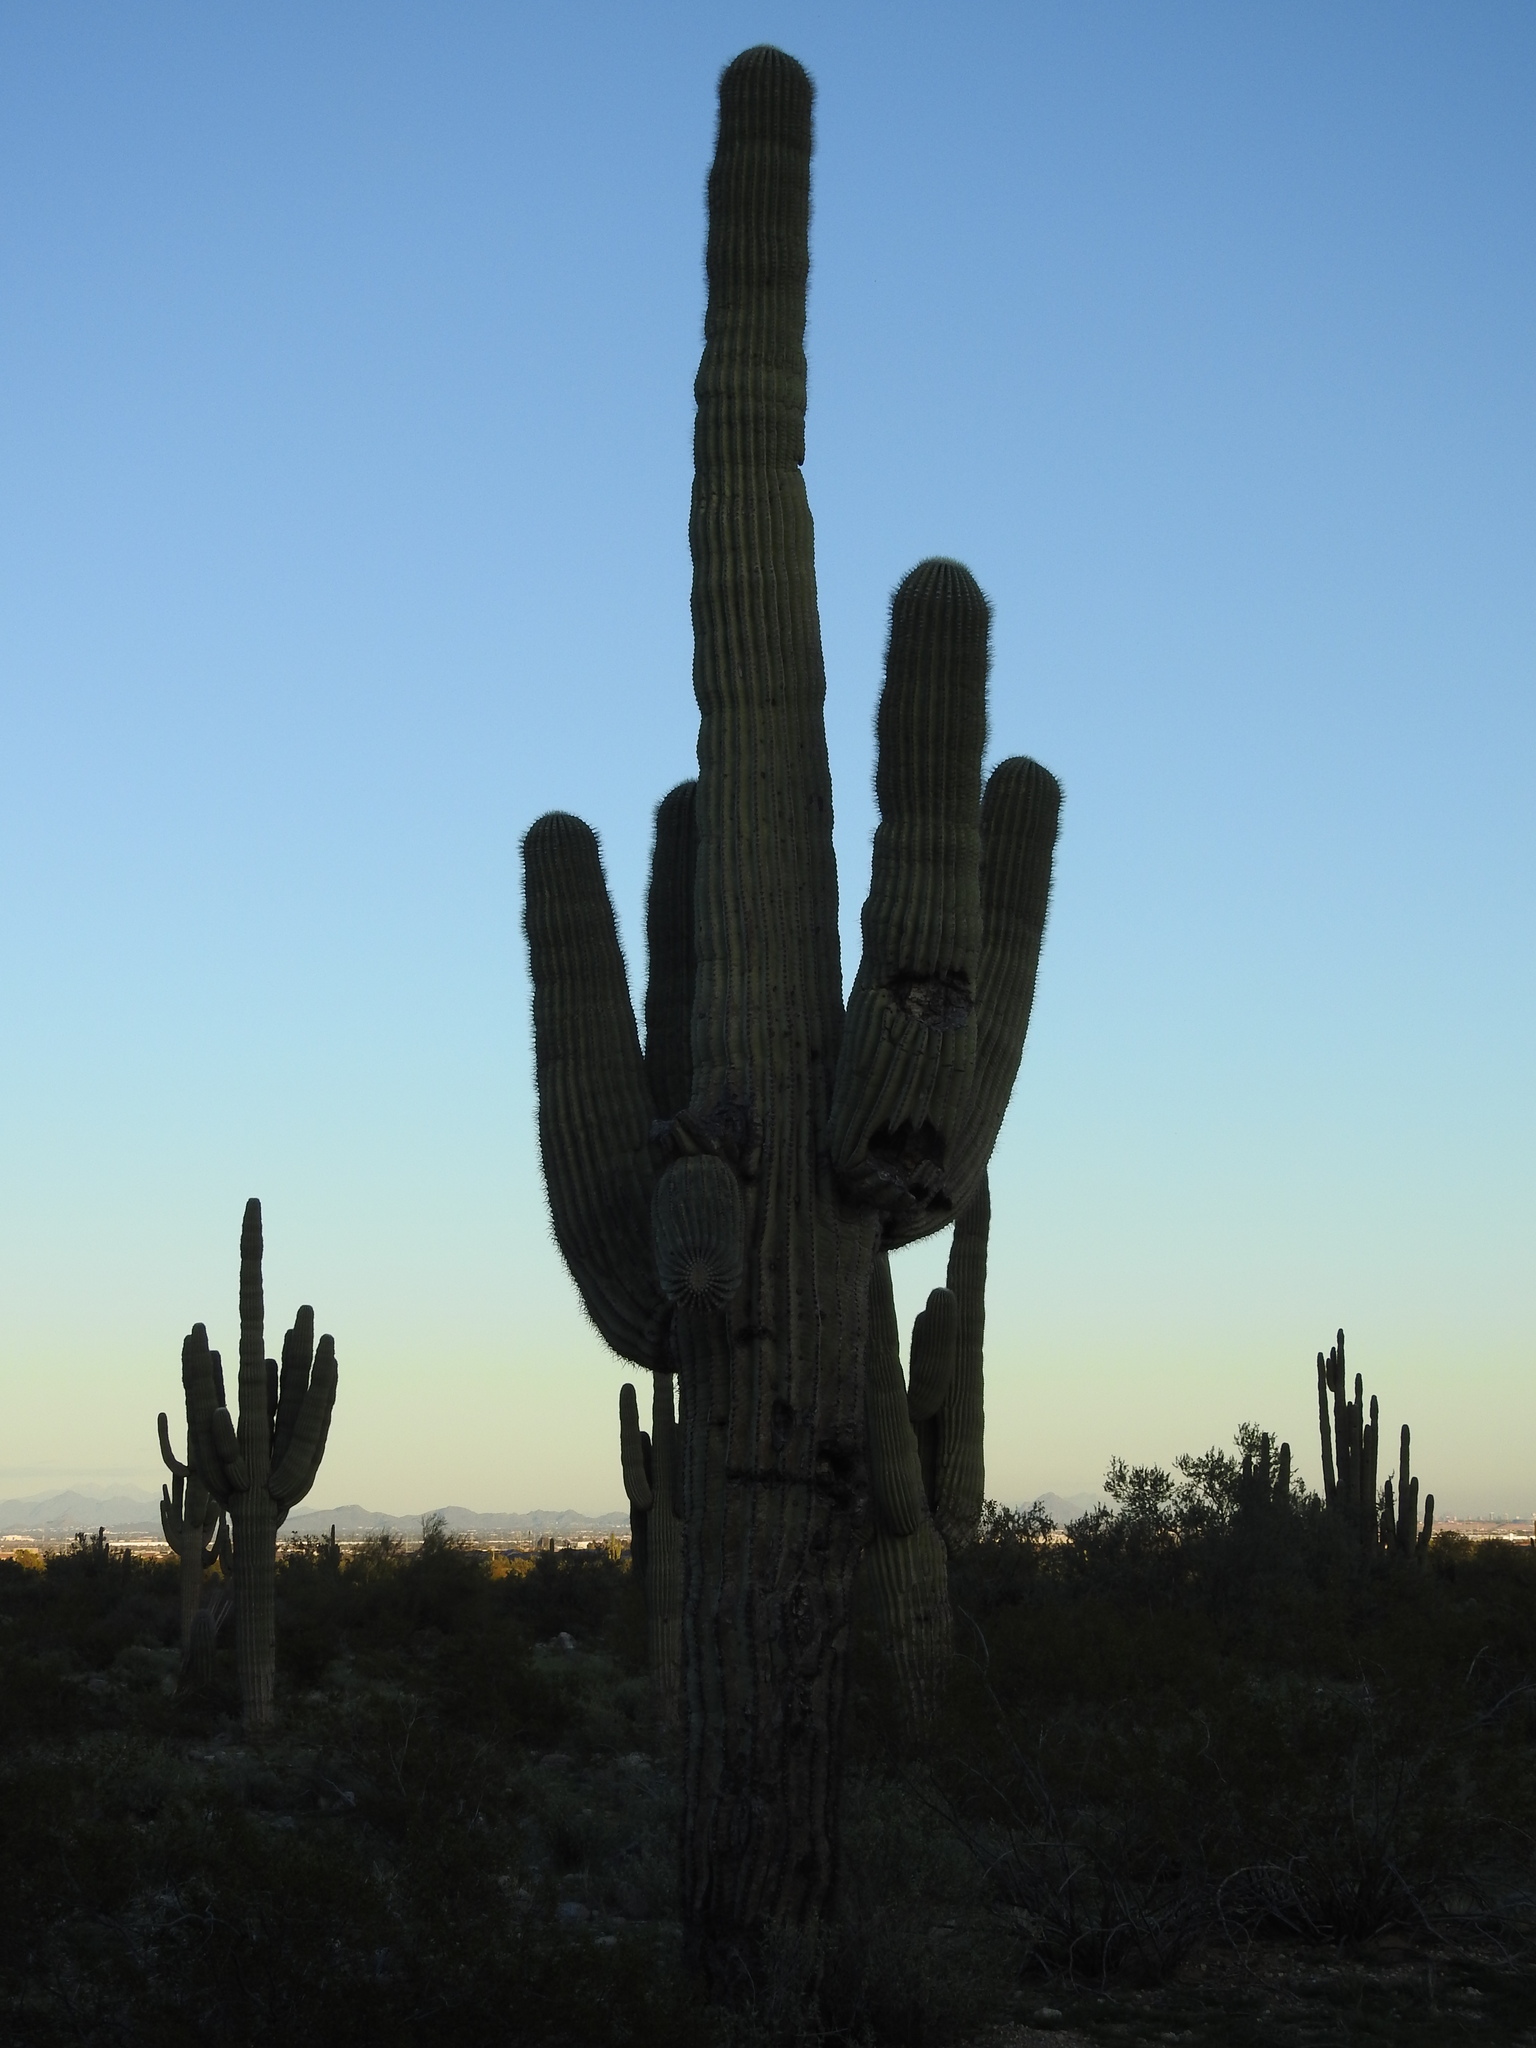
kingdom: Plantae
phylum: Tracheophyta
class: Magnoliopsida
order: Caryophyllales
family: Cactaceae
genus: Carnegiea
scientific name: Carnegiea gigantea
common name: Saguaro
